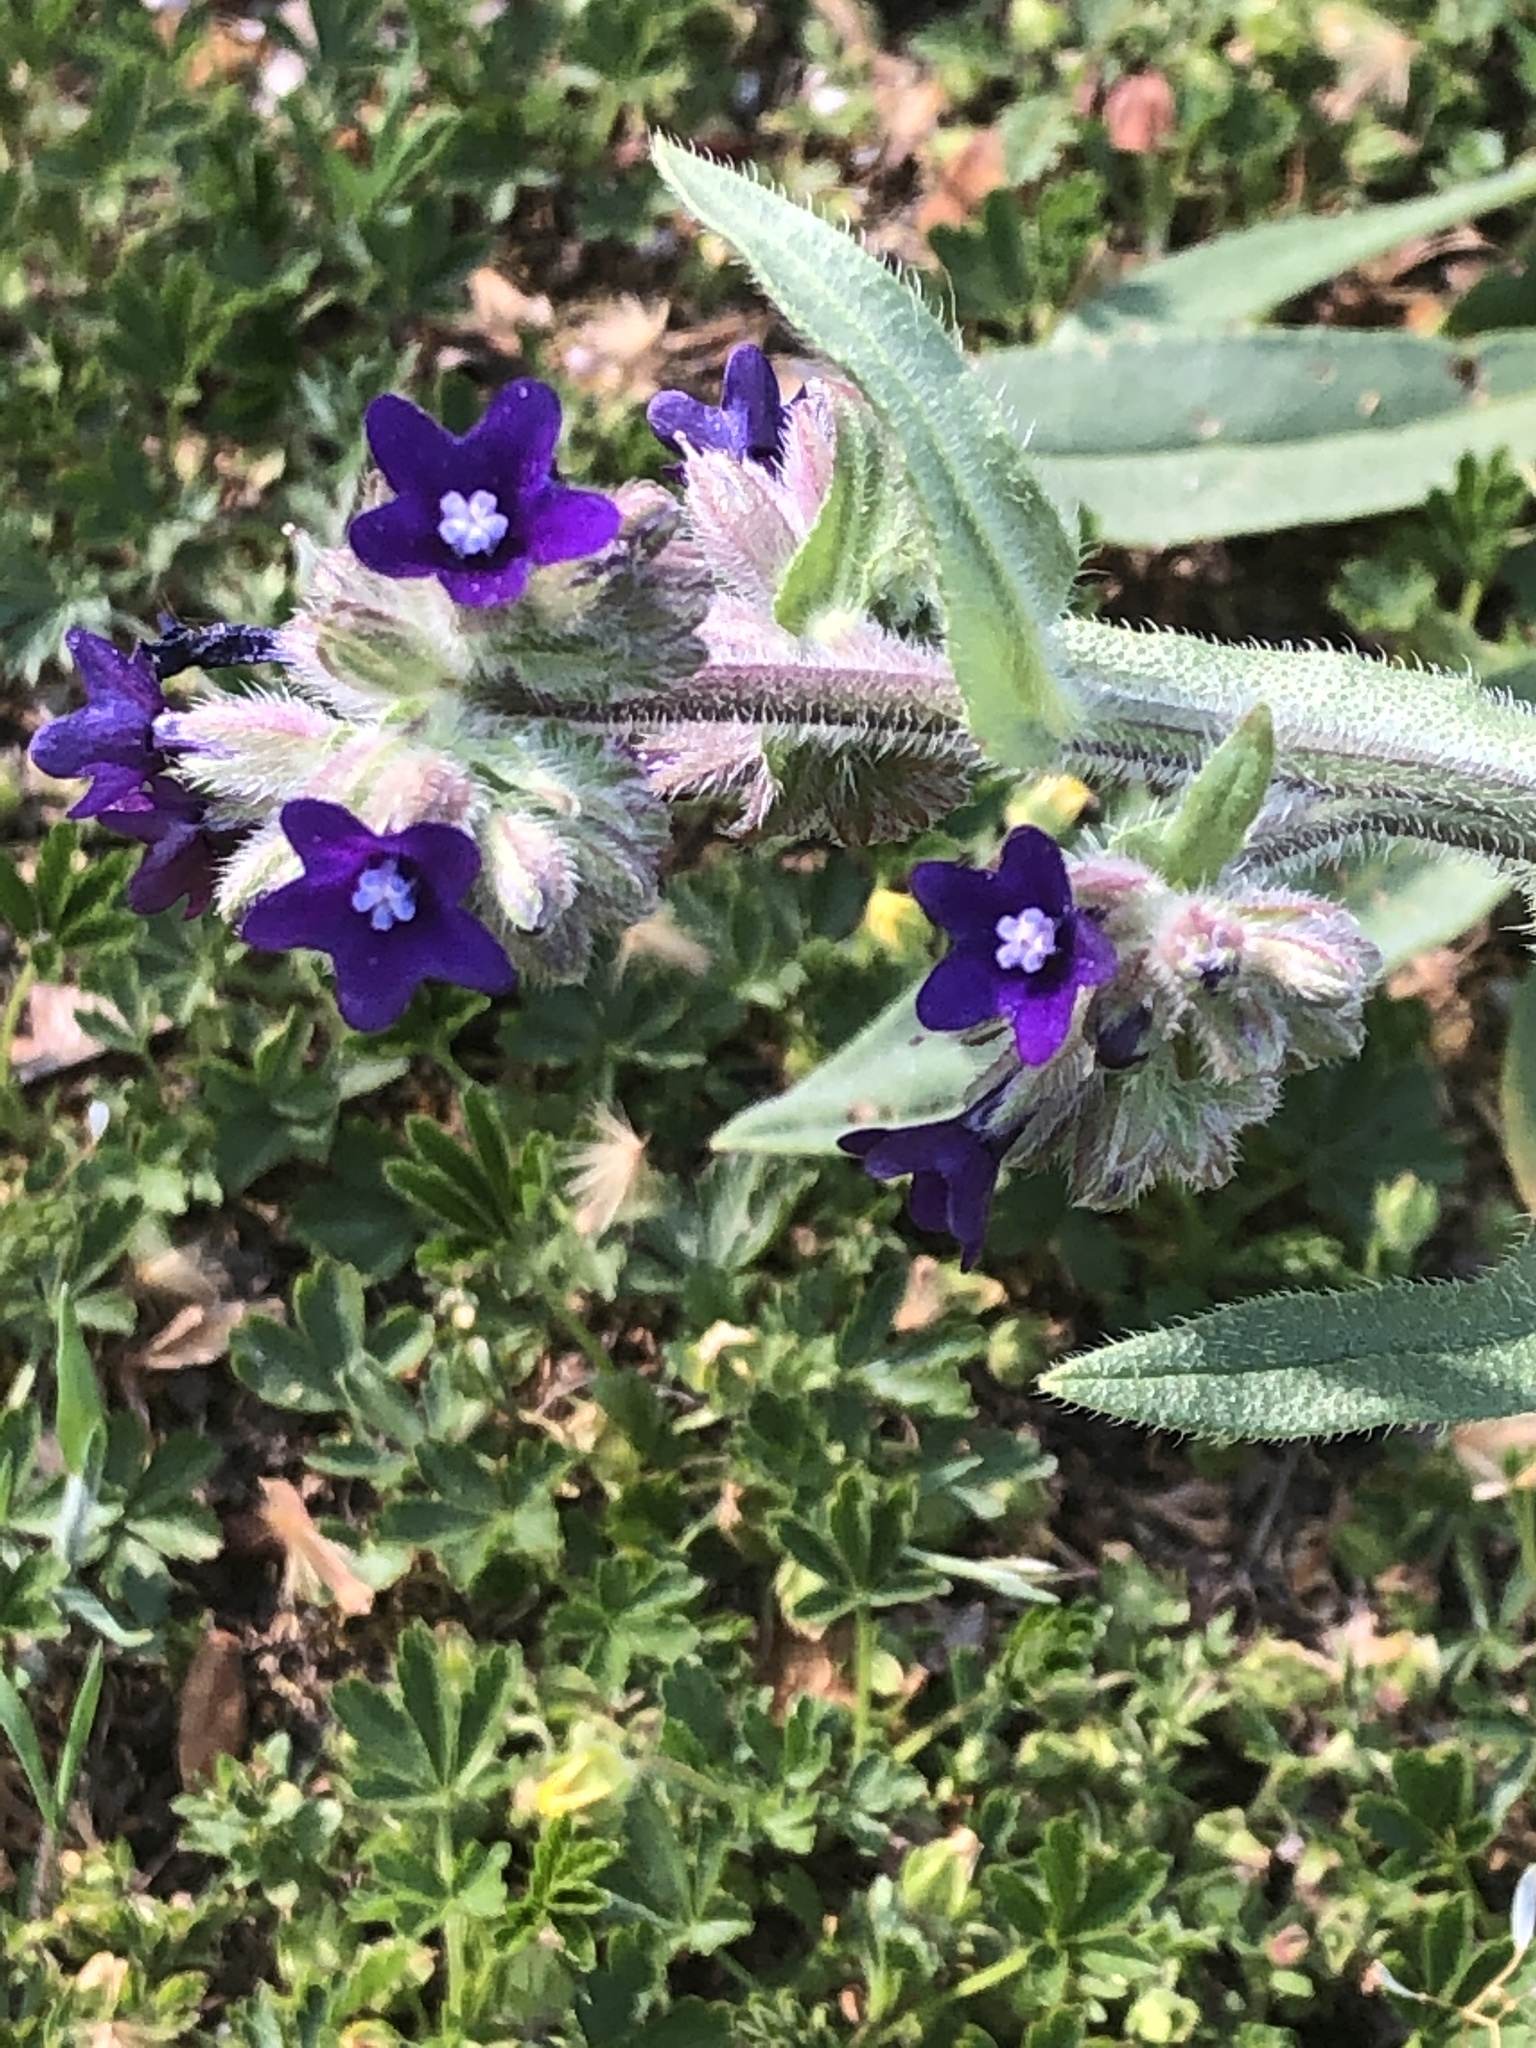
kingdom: Plantae
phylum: Tracheophyta
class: Magnoliopsida
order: Boraginales
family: Boraginaceae
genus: Anchusa
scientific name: Anchusa officinalis
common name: Alkanet
